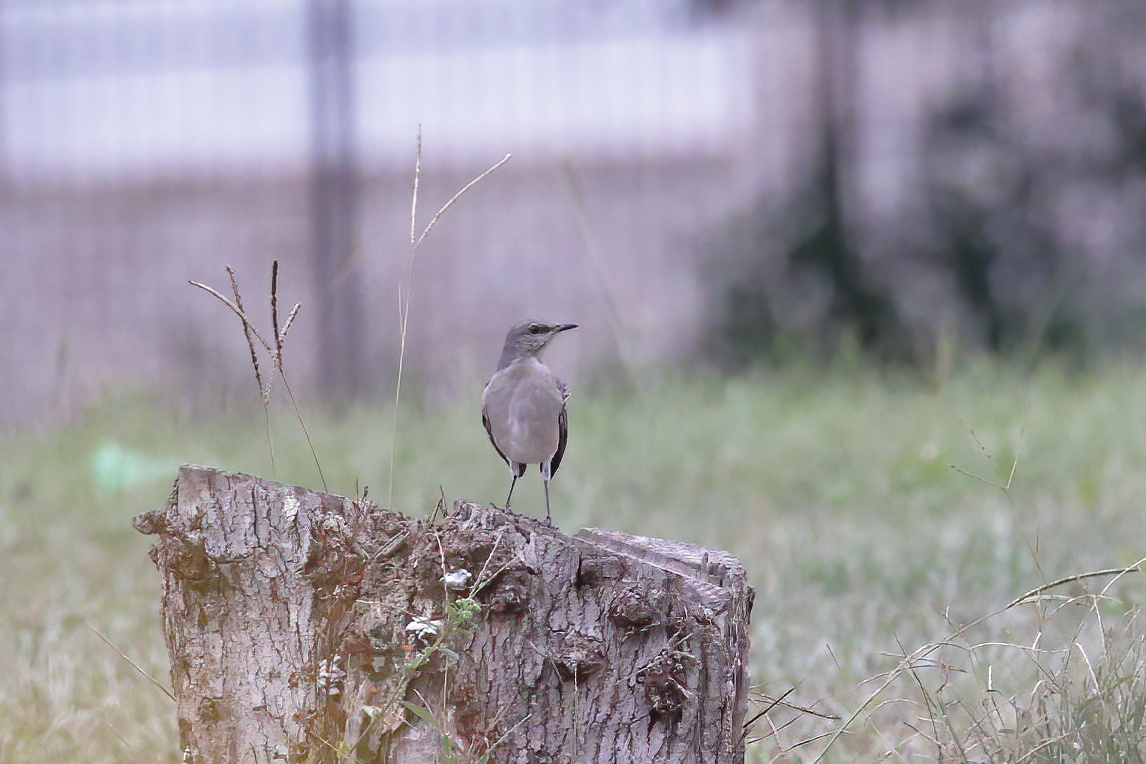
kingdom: Animalia
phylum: Chordata
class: Aves
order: Passeriformes
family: Mimidae
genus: Mimus
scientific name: Mimus polyglottos
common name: Northern mockingbird
